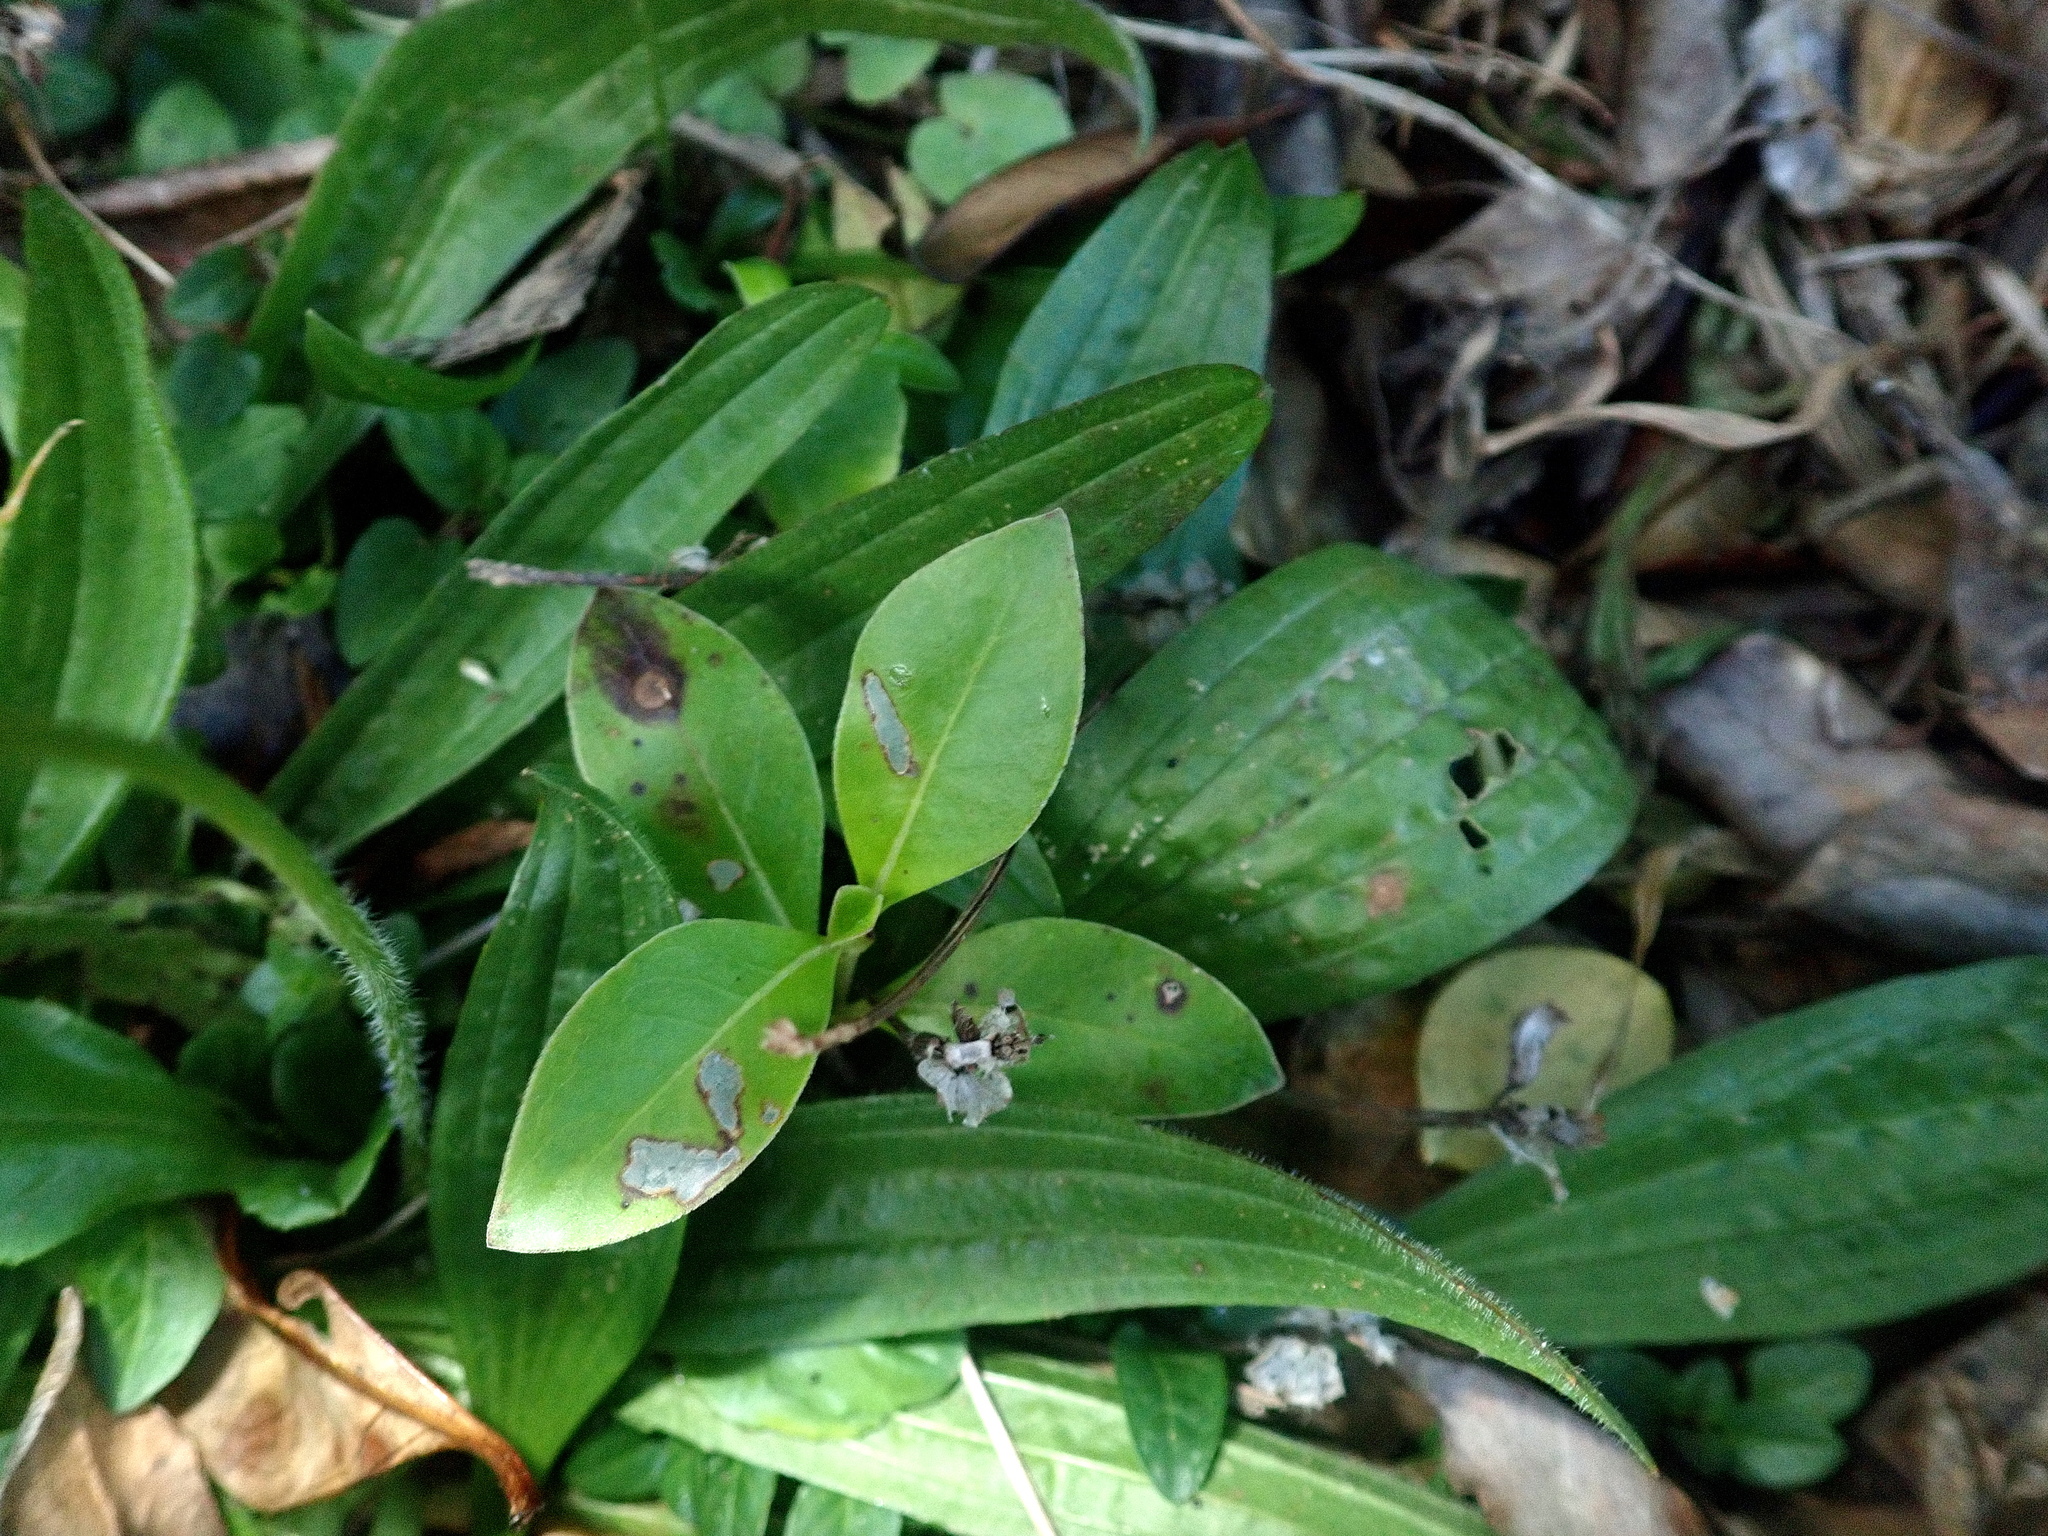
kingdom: Plantae
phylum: Tracheophyta
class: Magnoliopsida
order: Gentianales
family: Rubiaceae
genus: Coprosma
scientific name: Coprosma robusta
